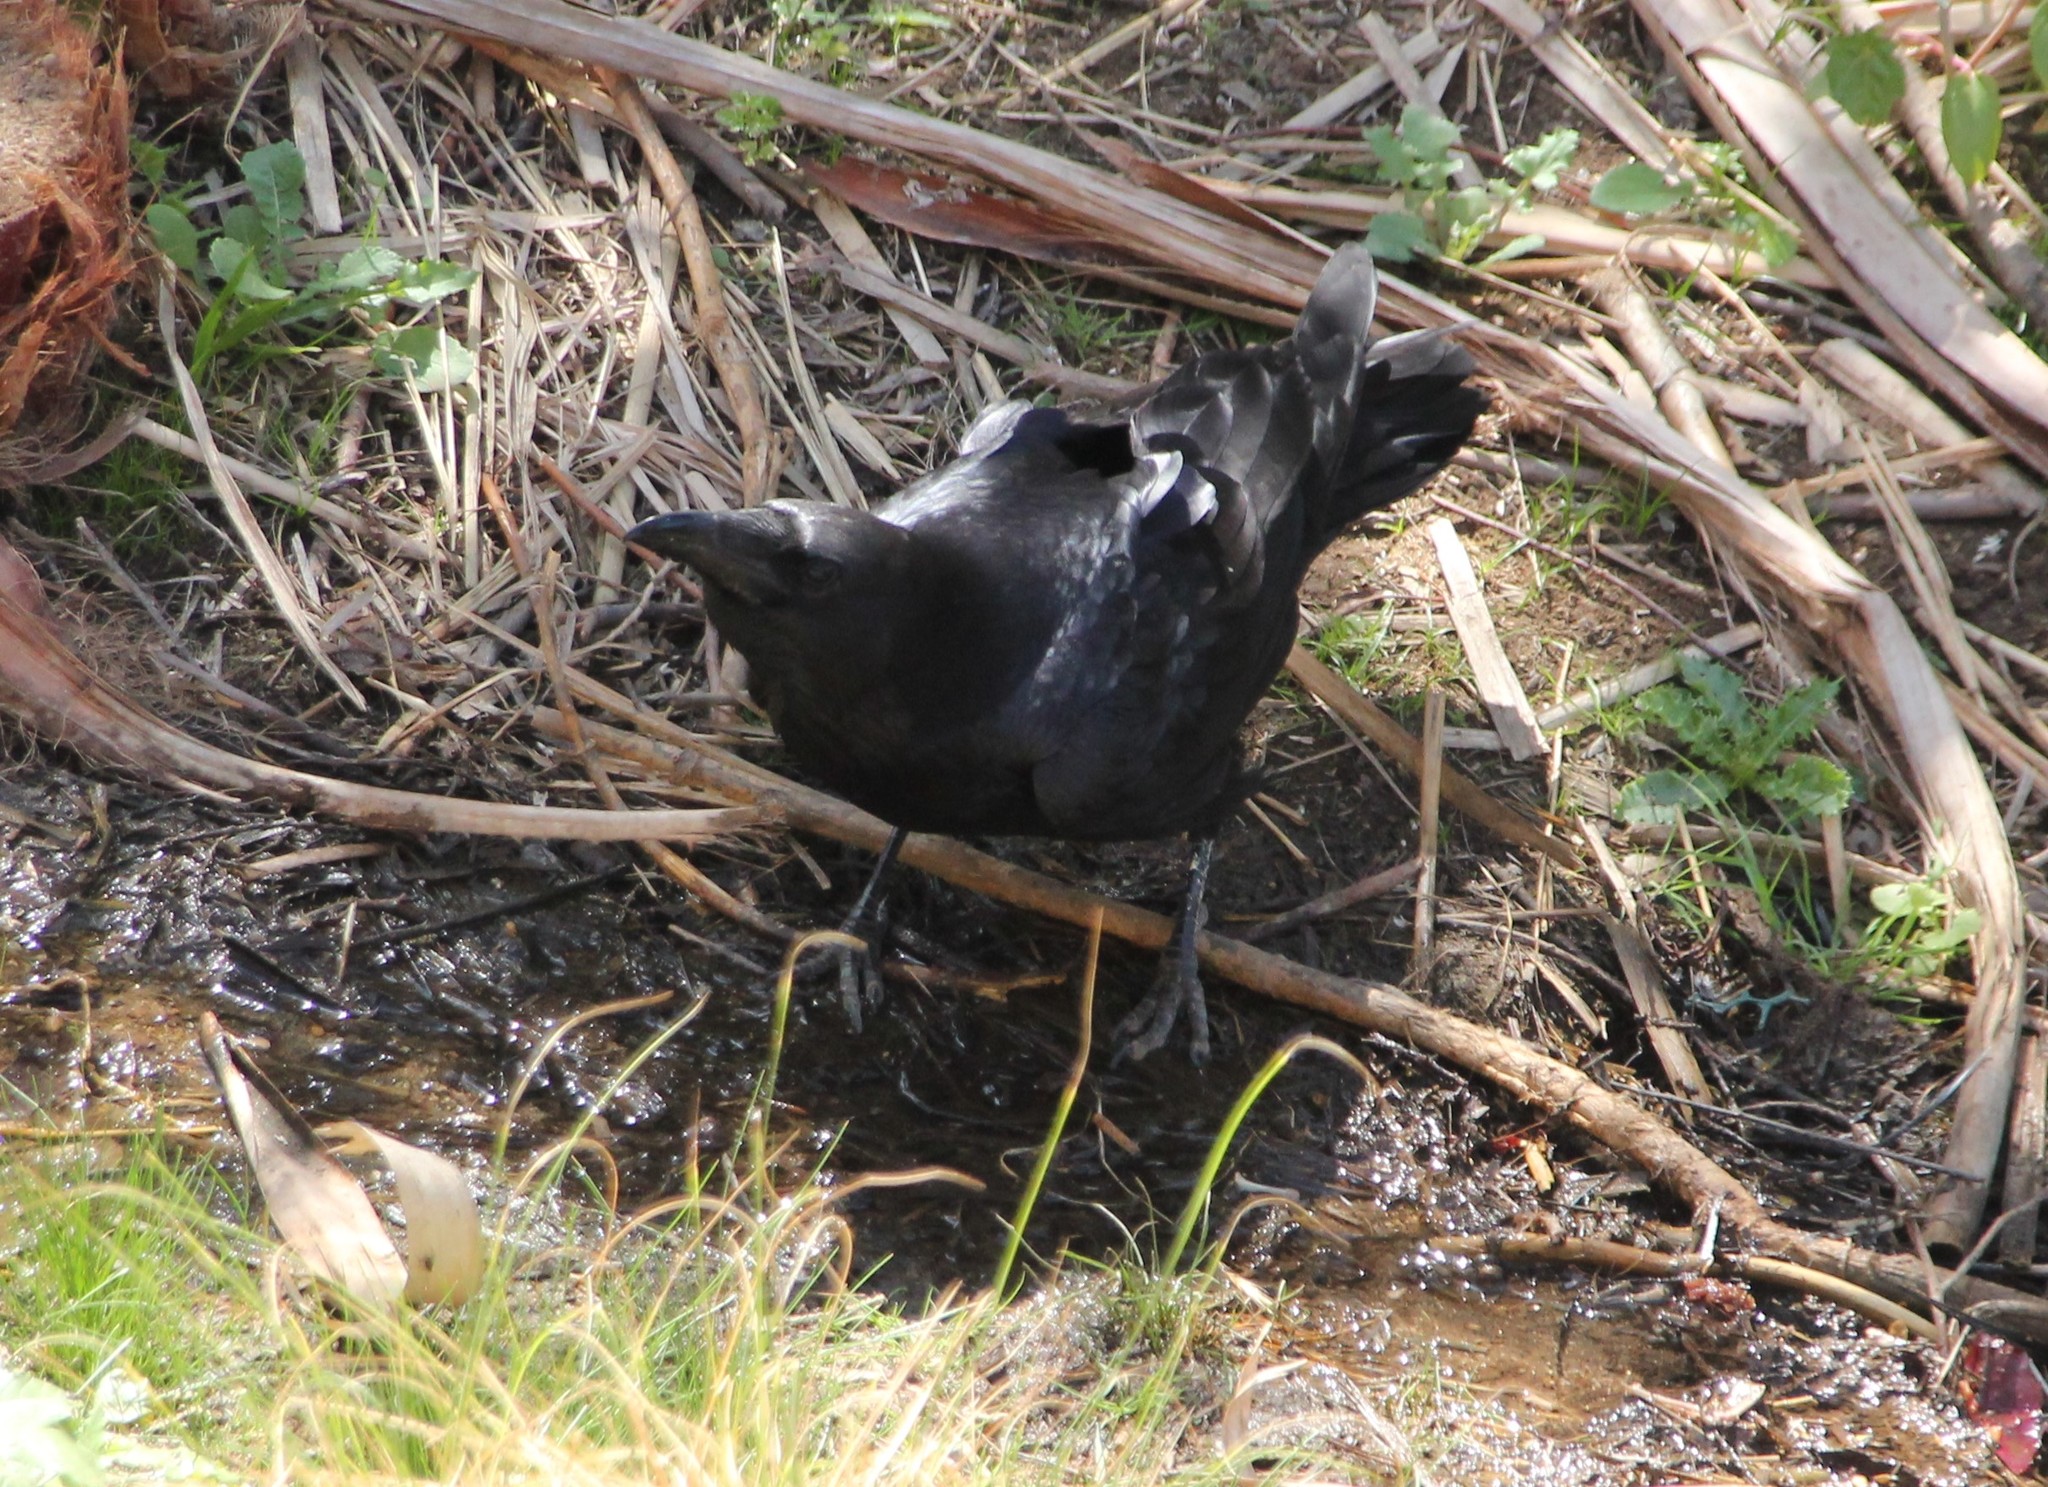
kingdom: Animalia
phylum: Chordata
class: Aves
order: Passeriformes
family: Corvidae
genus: Corvus
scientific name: Corvus corax
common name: Common raven
